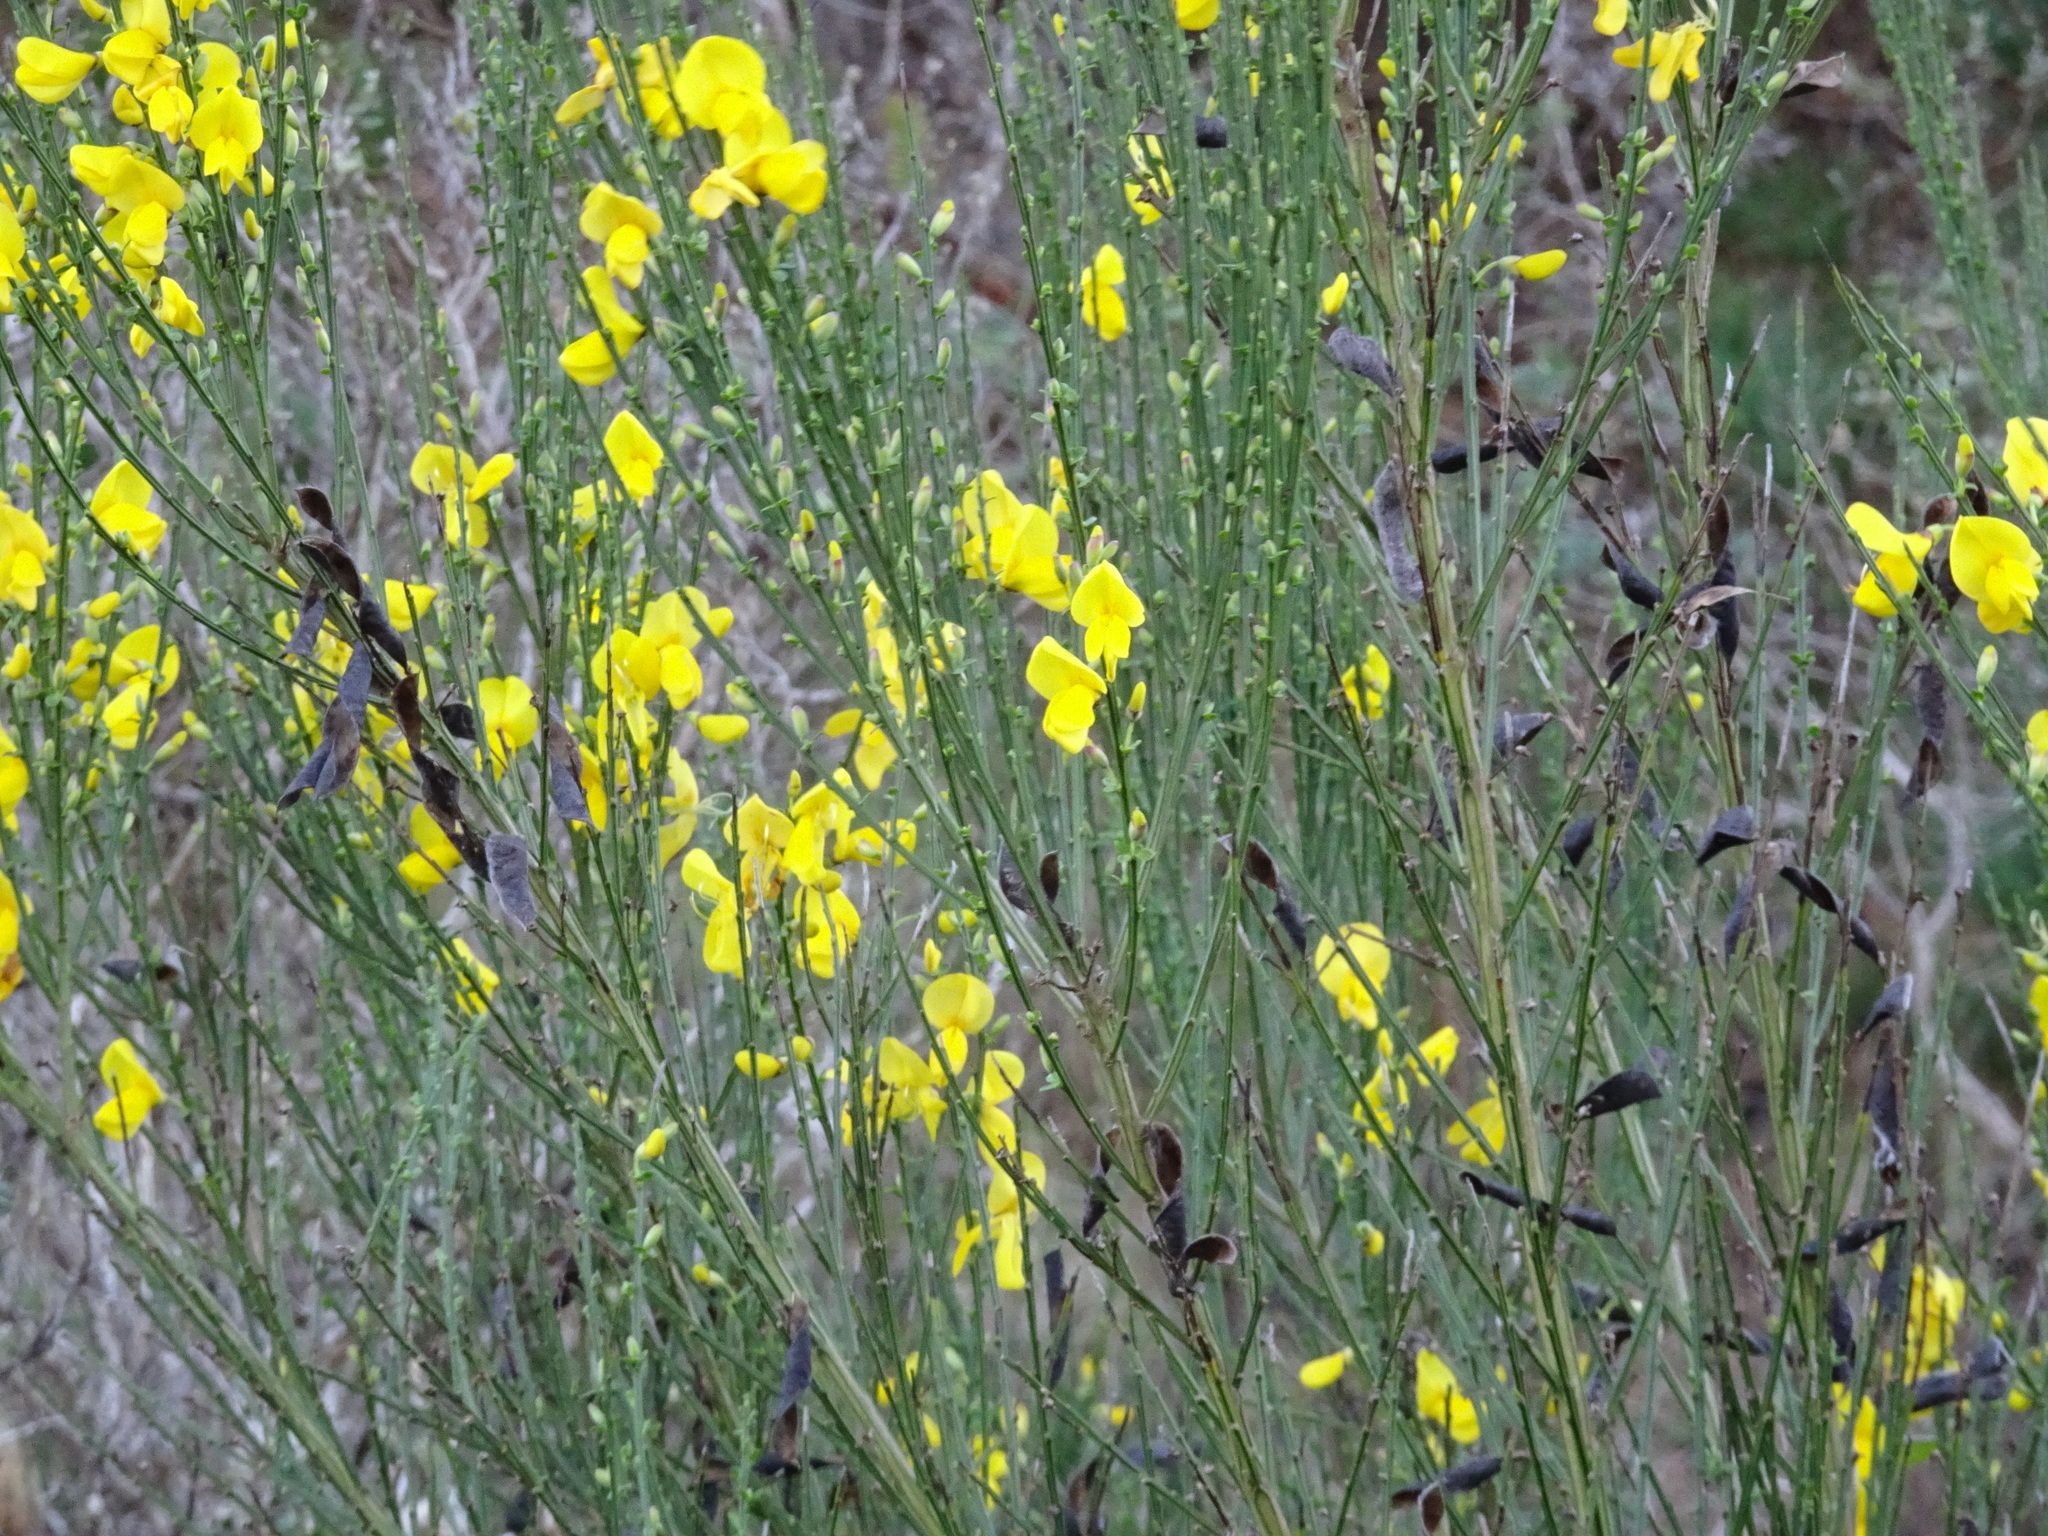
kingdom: Plantae
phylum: Tracheophyta
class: Magnoliopsida
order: Fabales
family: Fabaceae
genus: Cytisus
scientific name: Cytisus scoparius
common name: Scotch broom
